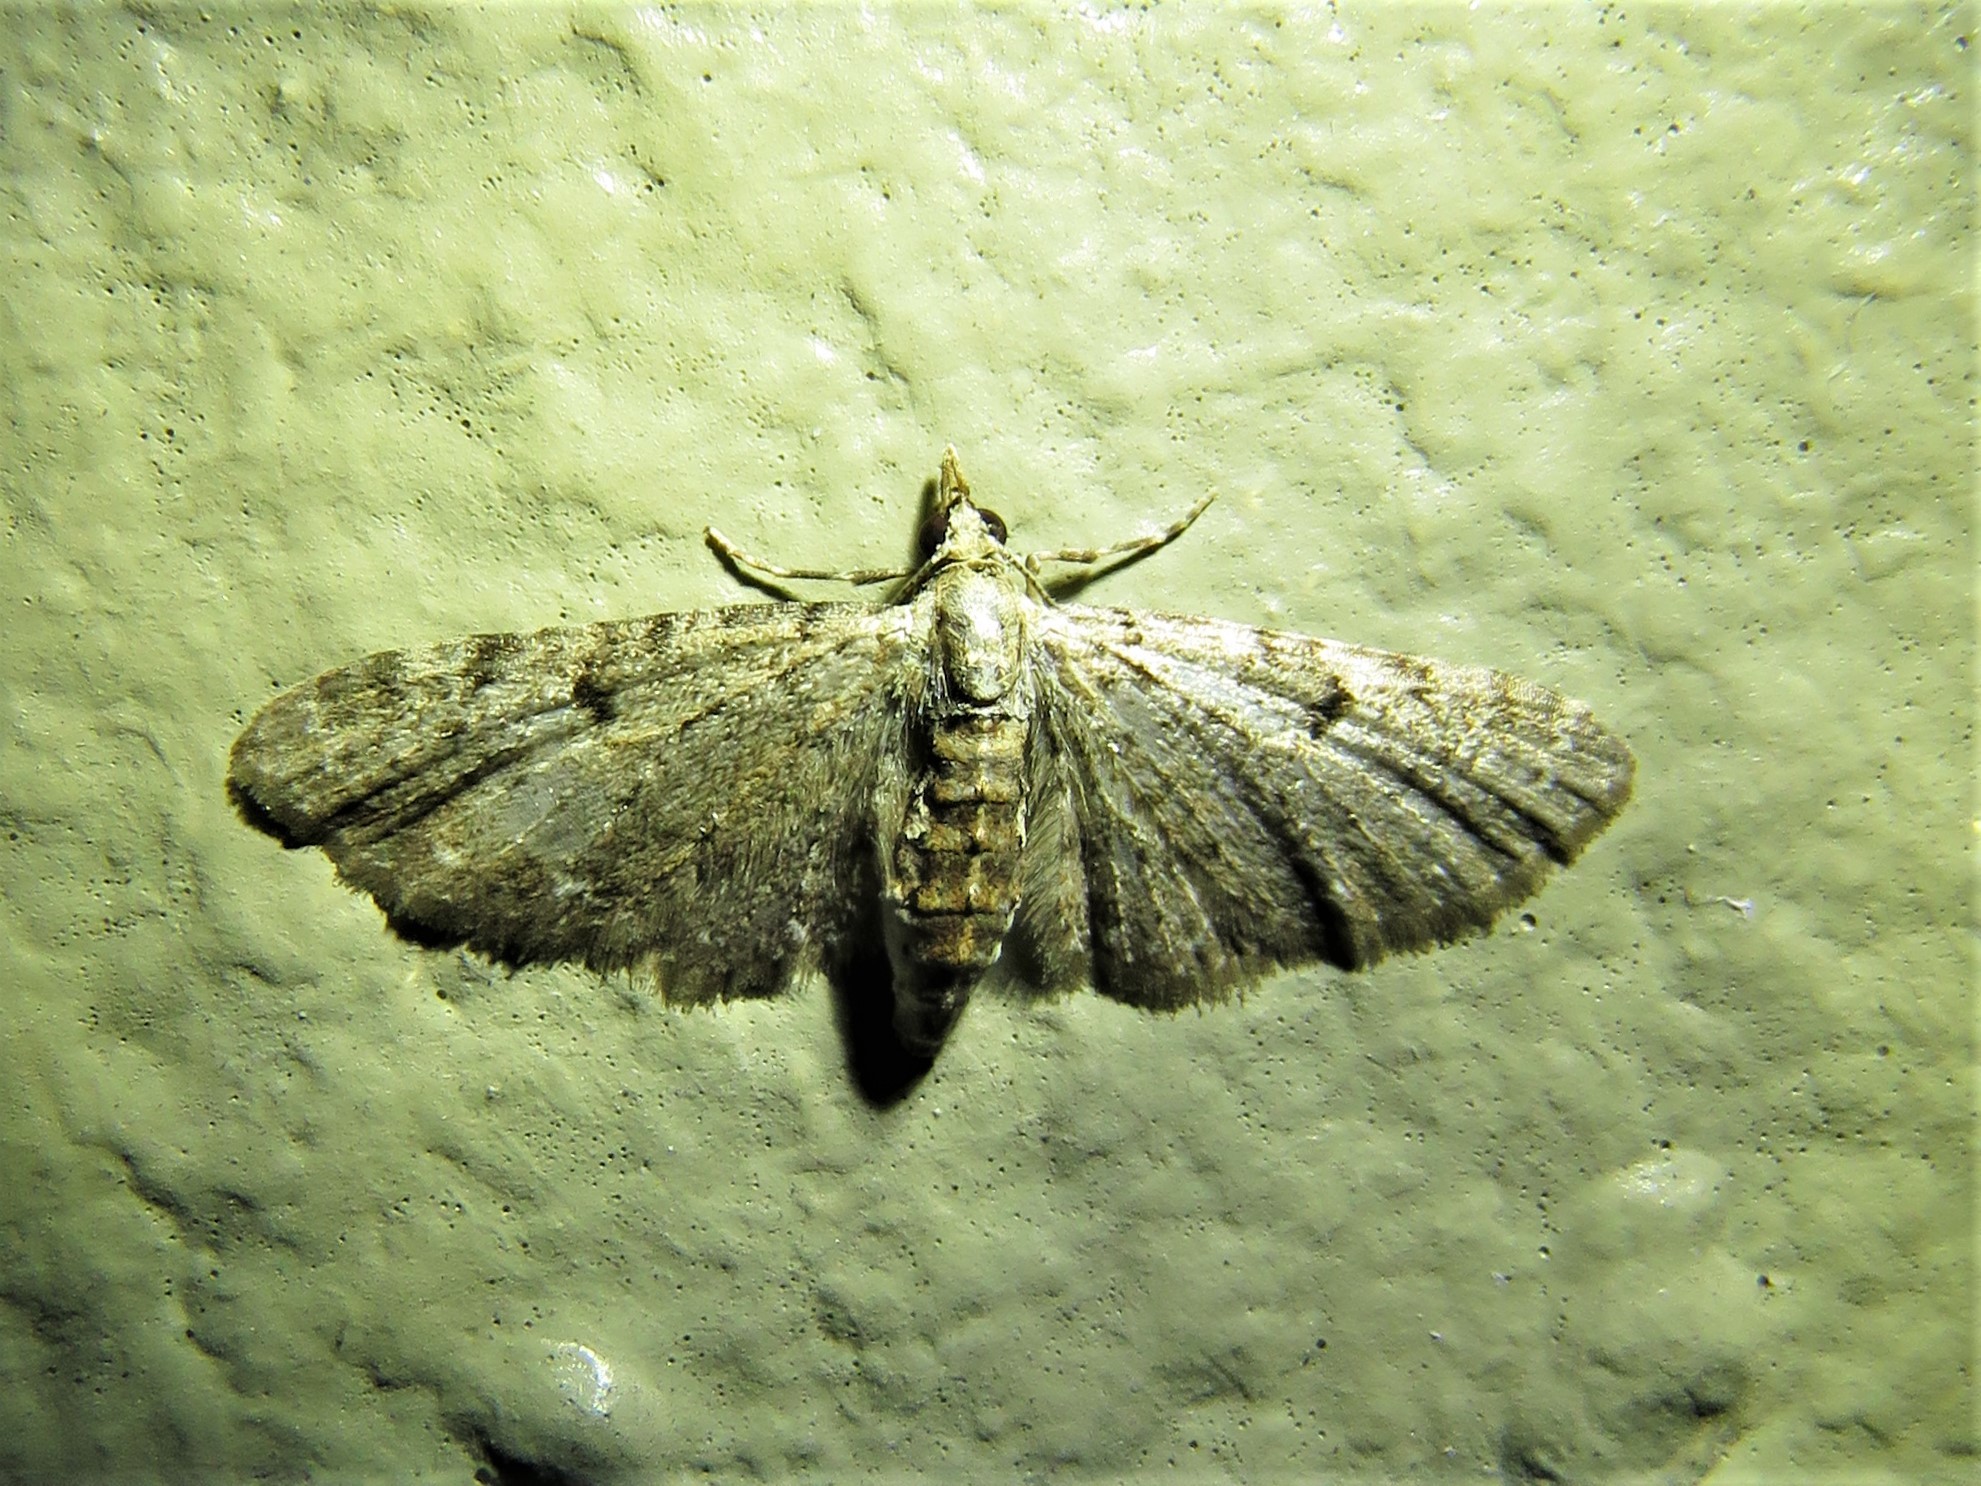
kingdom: Animalia
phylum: Arthropoda
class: Insecta
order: Lepidoptera
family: Geometridae
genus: Eupithecia
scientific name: Eupithecia miserulata
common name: Common eupithecia
